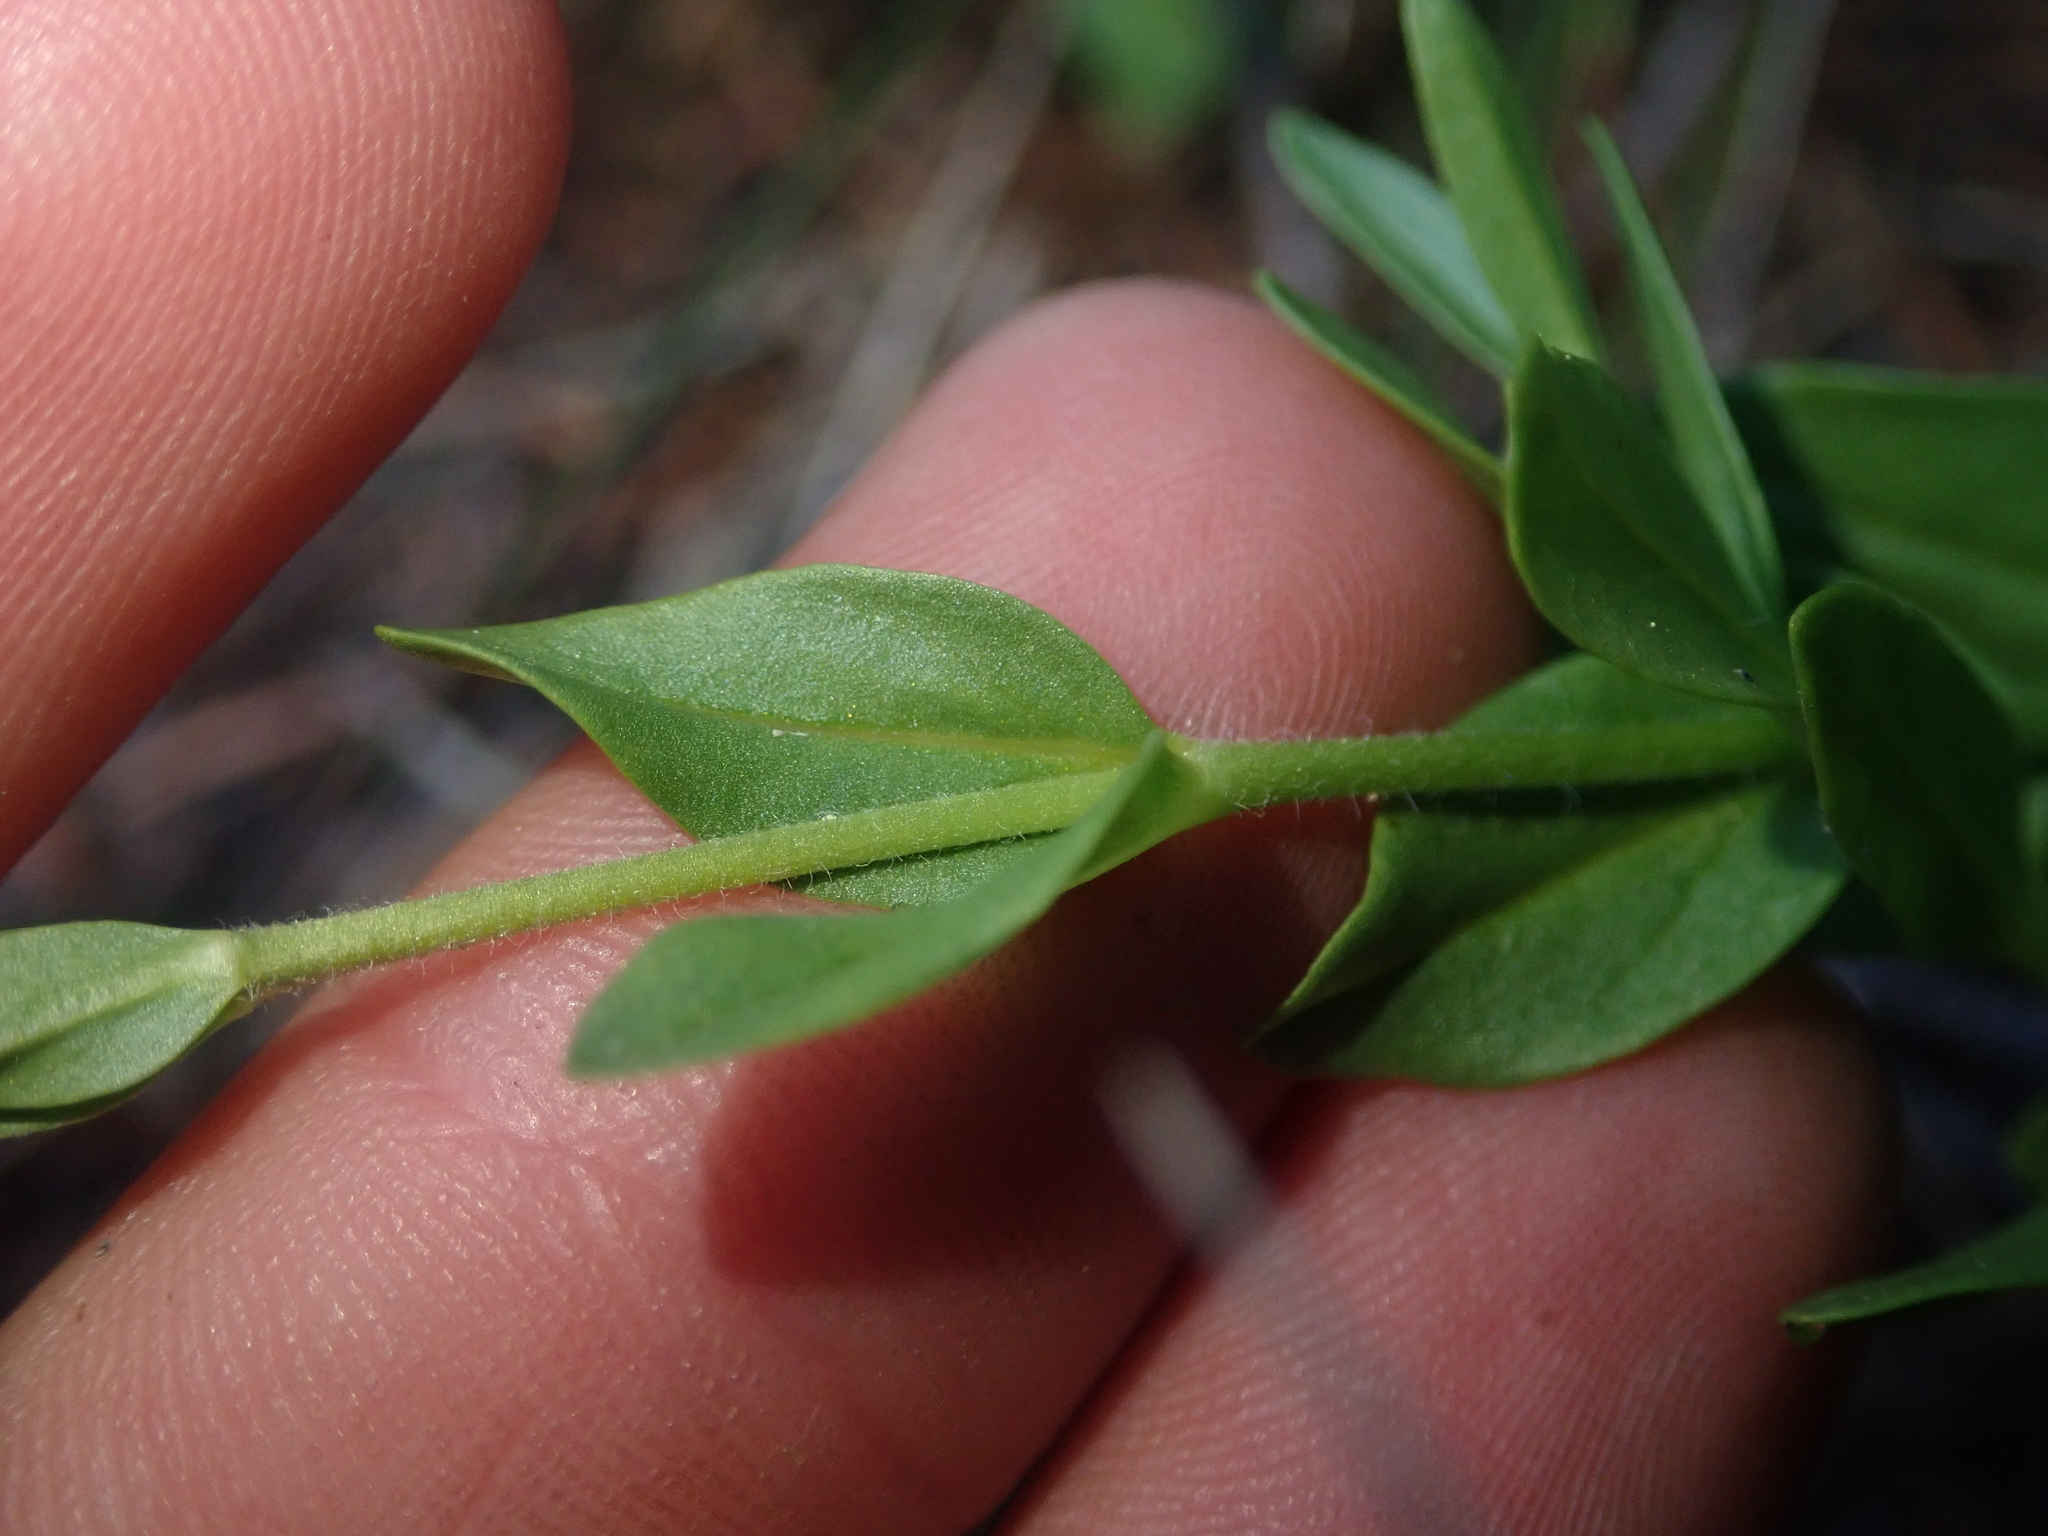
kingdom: Plantae
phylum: Tracheophyta
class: Magnoliopsida
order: Lamiales
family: Plantaginaceae
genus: Veronica
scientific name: Veronica cusickii
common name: Cusick's speedwell
